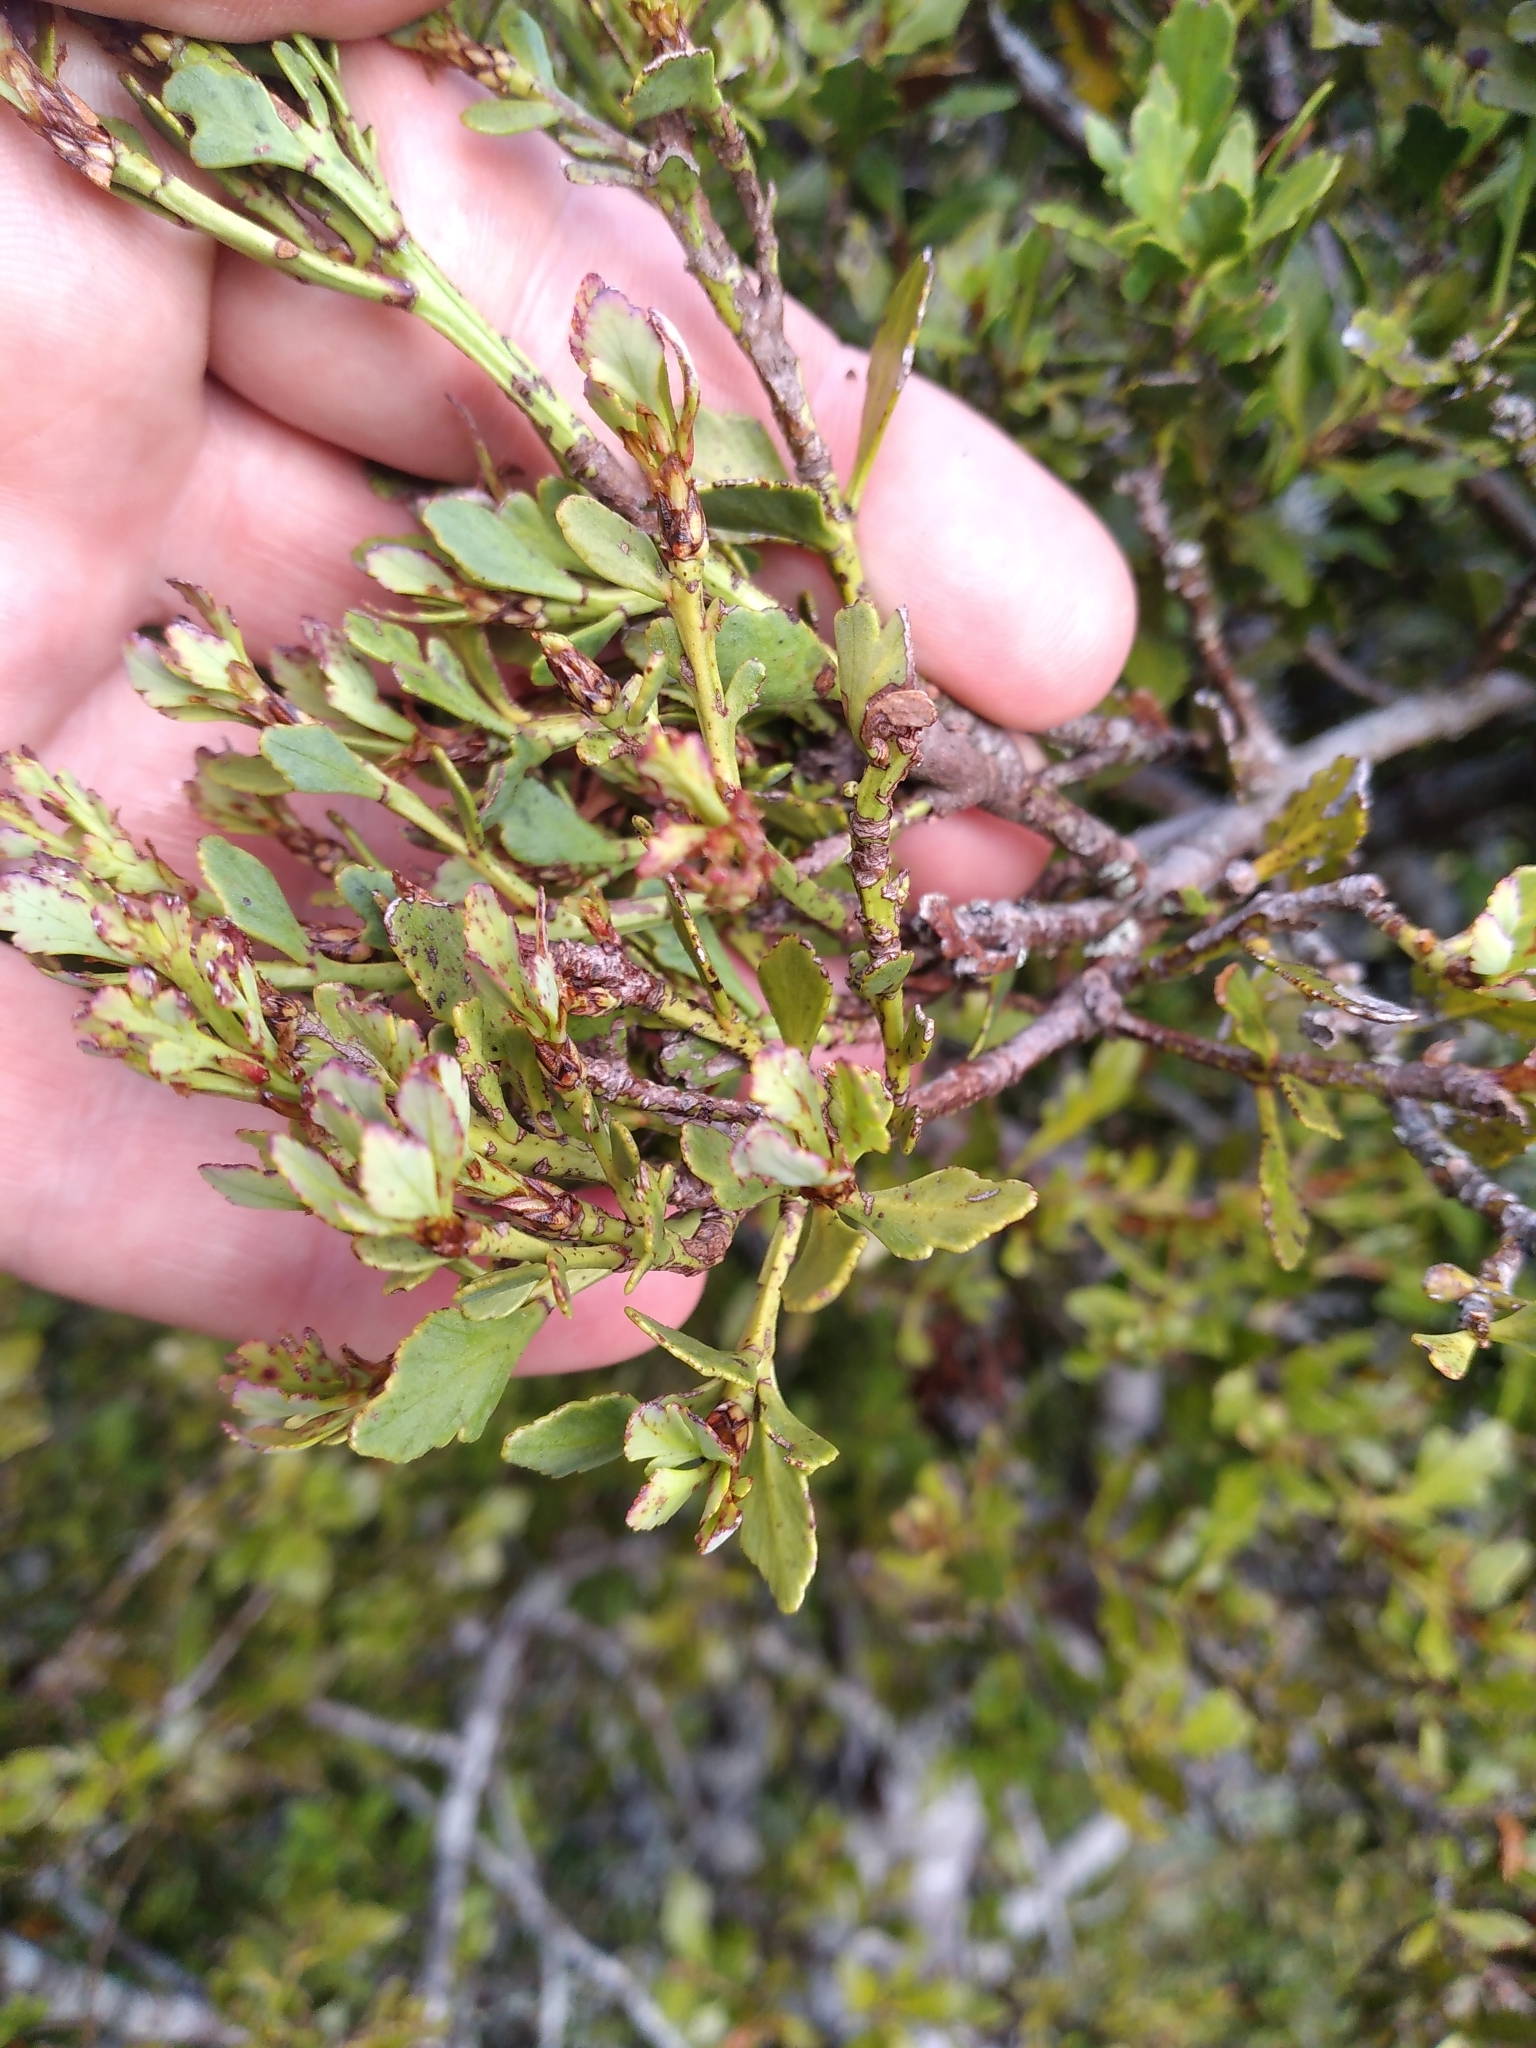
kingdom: Plantae
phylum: Tracheophyta
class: Pinopsida
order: Pinales
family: Phyllocladaceae
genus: Phyllocladus
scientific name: Phyllocladus trichomanoides
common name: Celery pine
